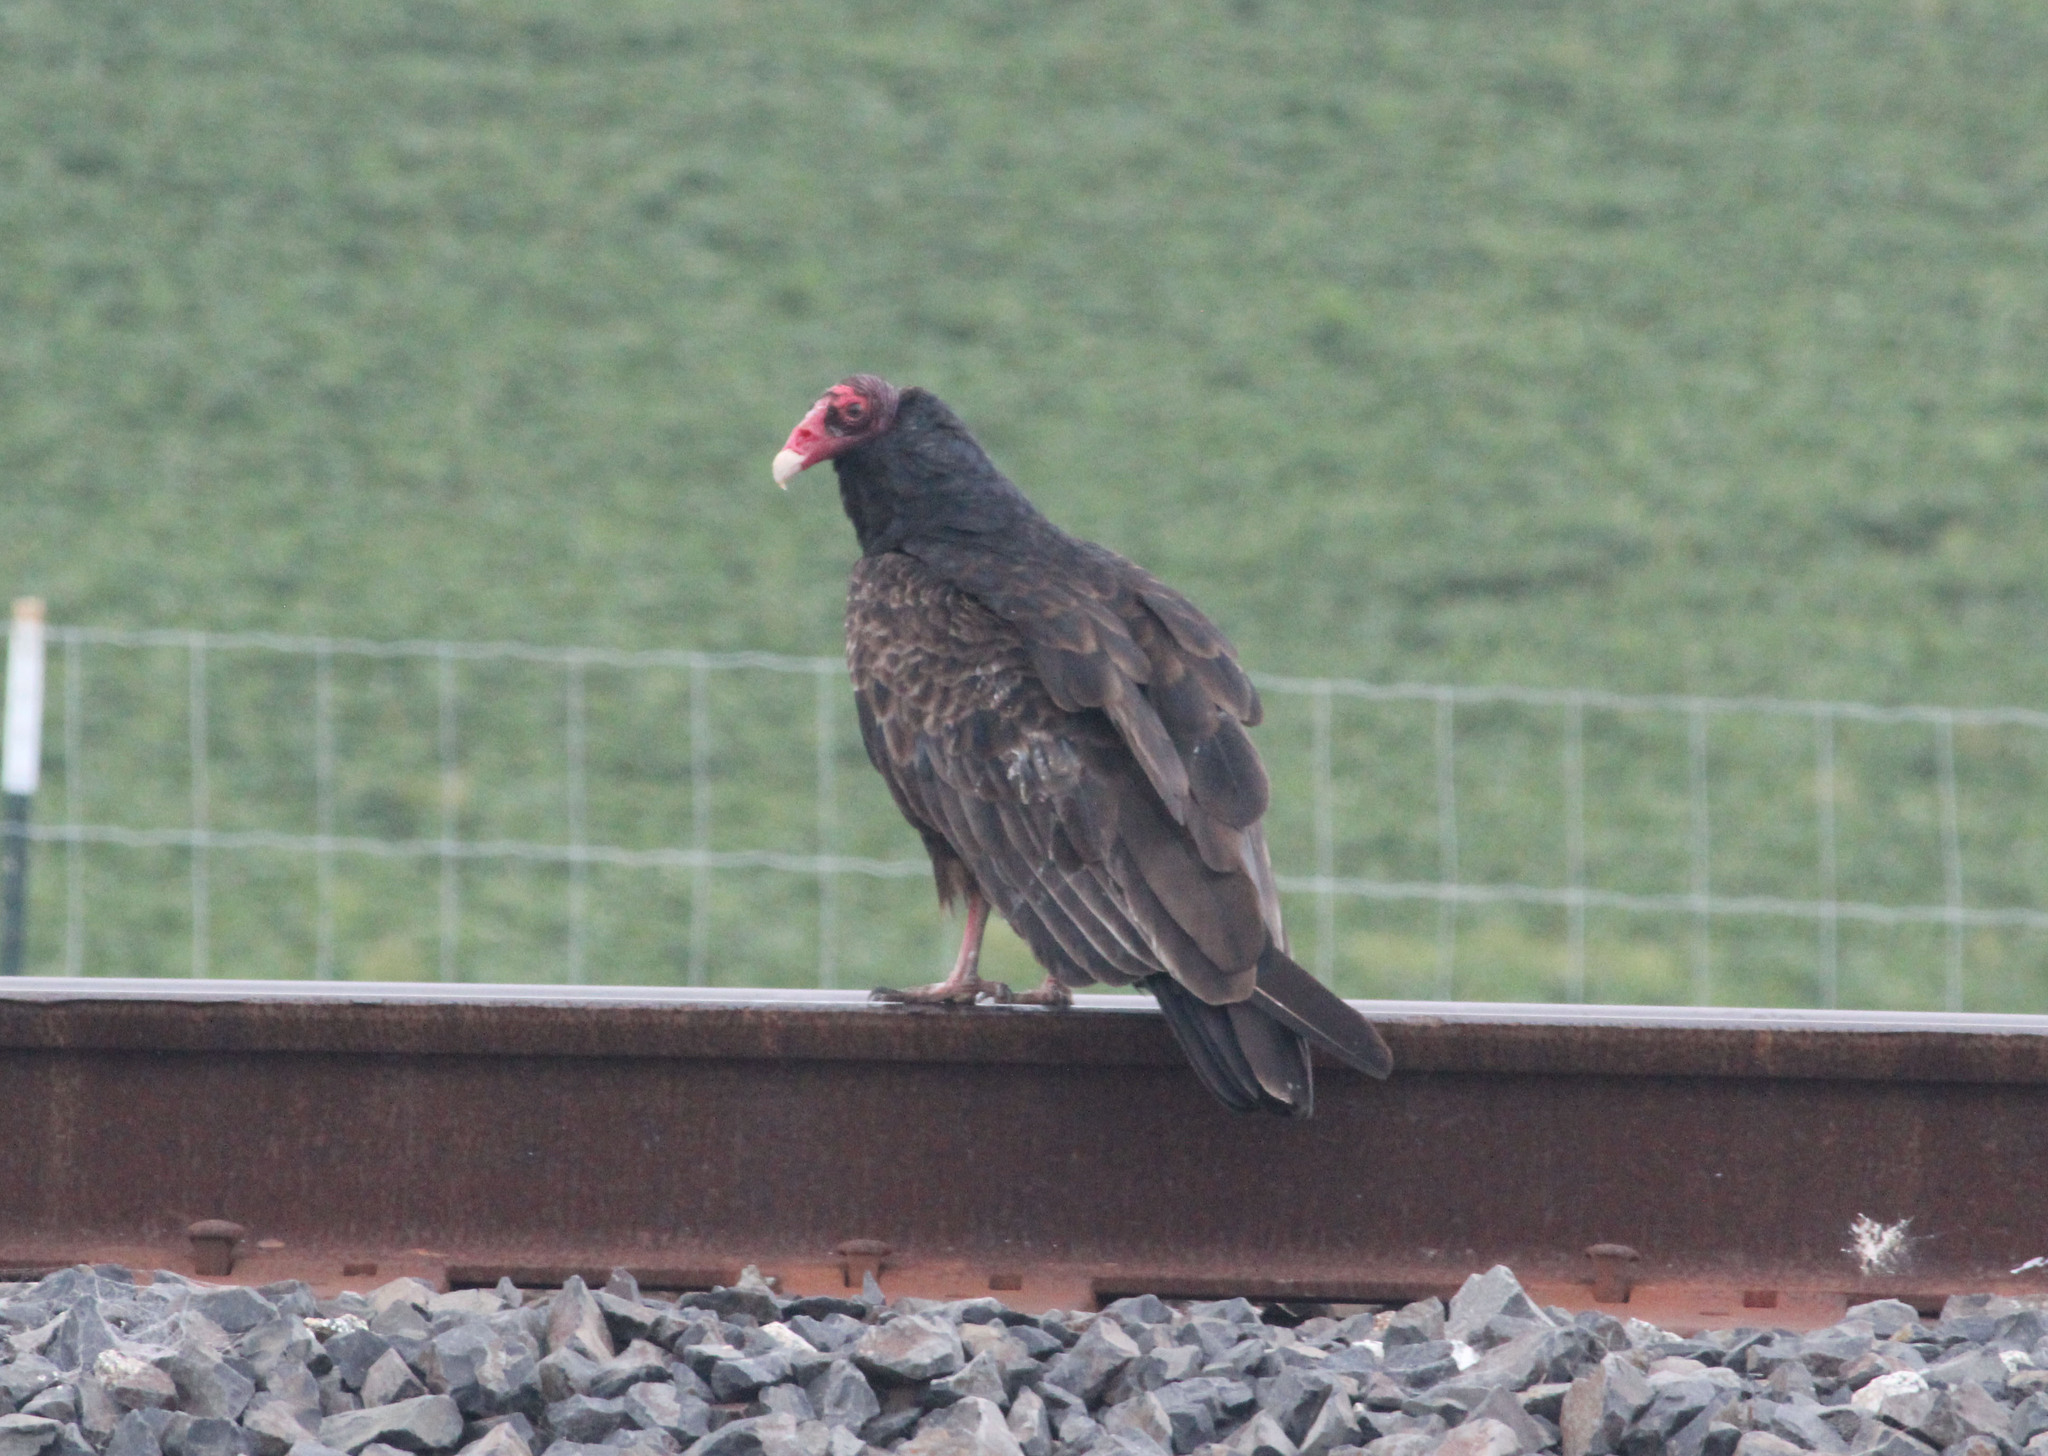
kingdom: Animalia
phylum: Chordata
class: Aves
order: Accipitriformes
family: Cathartidae
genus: Cathartes
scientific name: Cathartes aura
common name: Turkey vulture
